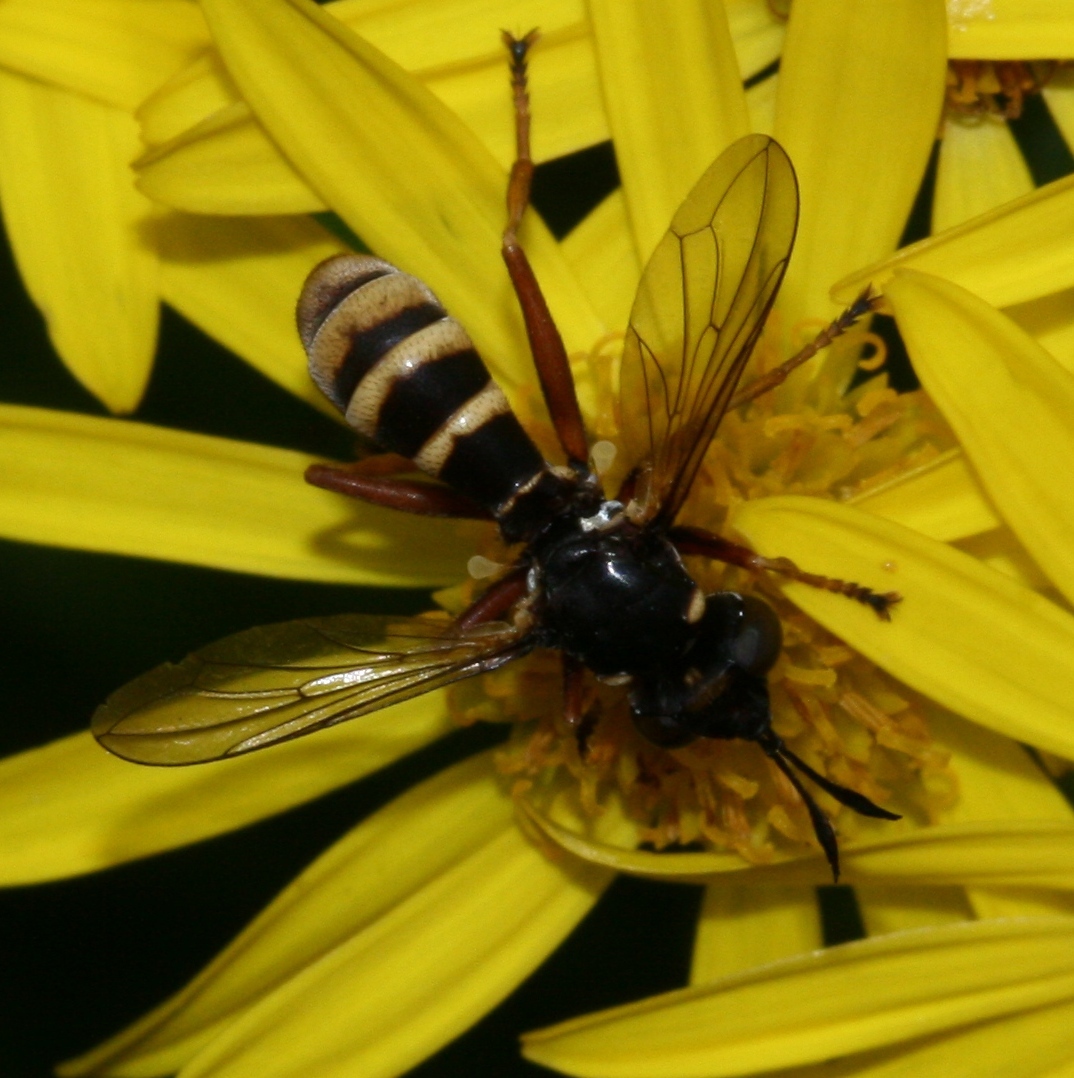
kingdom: Animalia
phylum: Arthropoda
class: Insecta
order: Diptera
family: Conopidae
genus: Conops
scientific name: Conops quadrifasciatus
